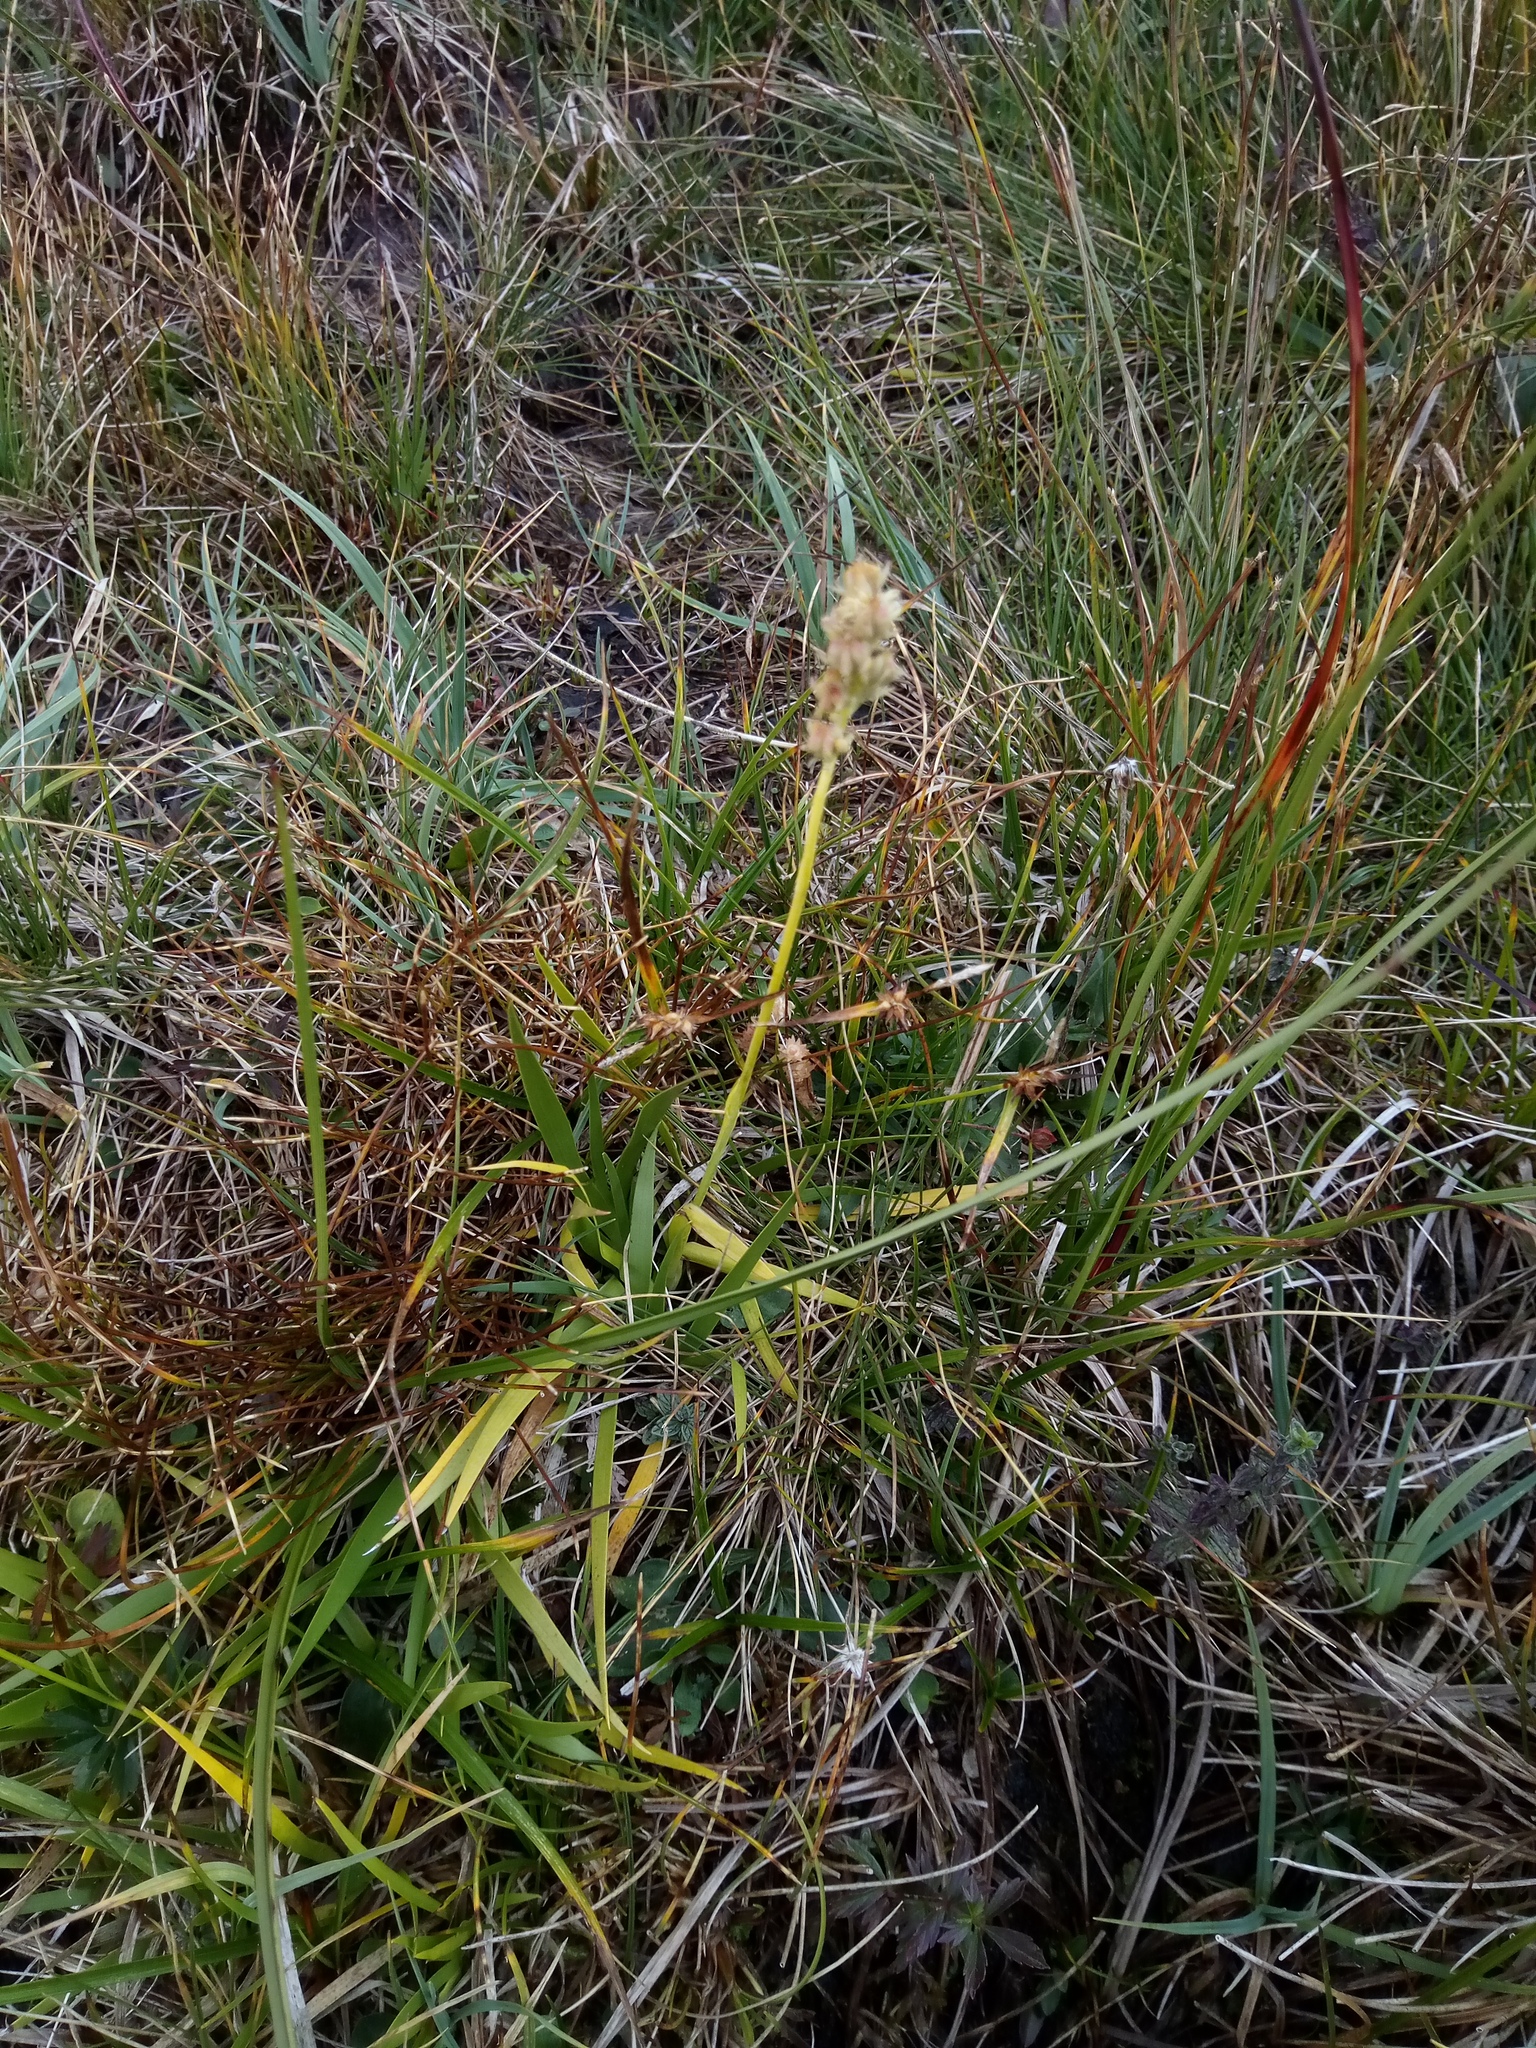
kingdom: Plantae
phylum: Tracheophyta
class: Liliopsida
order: Alismatales
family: Tofieldiaceae
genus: Tofieldia
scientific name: Tofieldia calyculata
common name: German-asphodel
